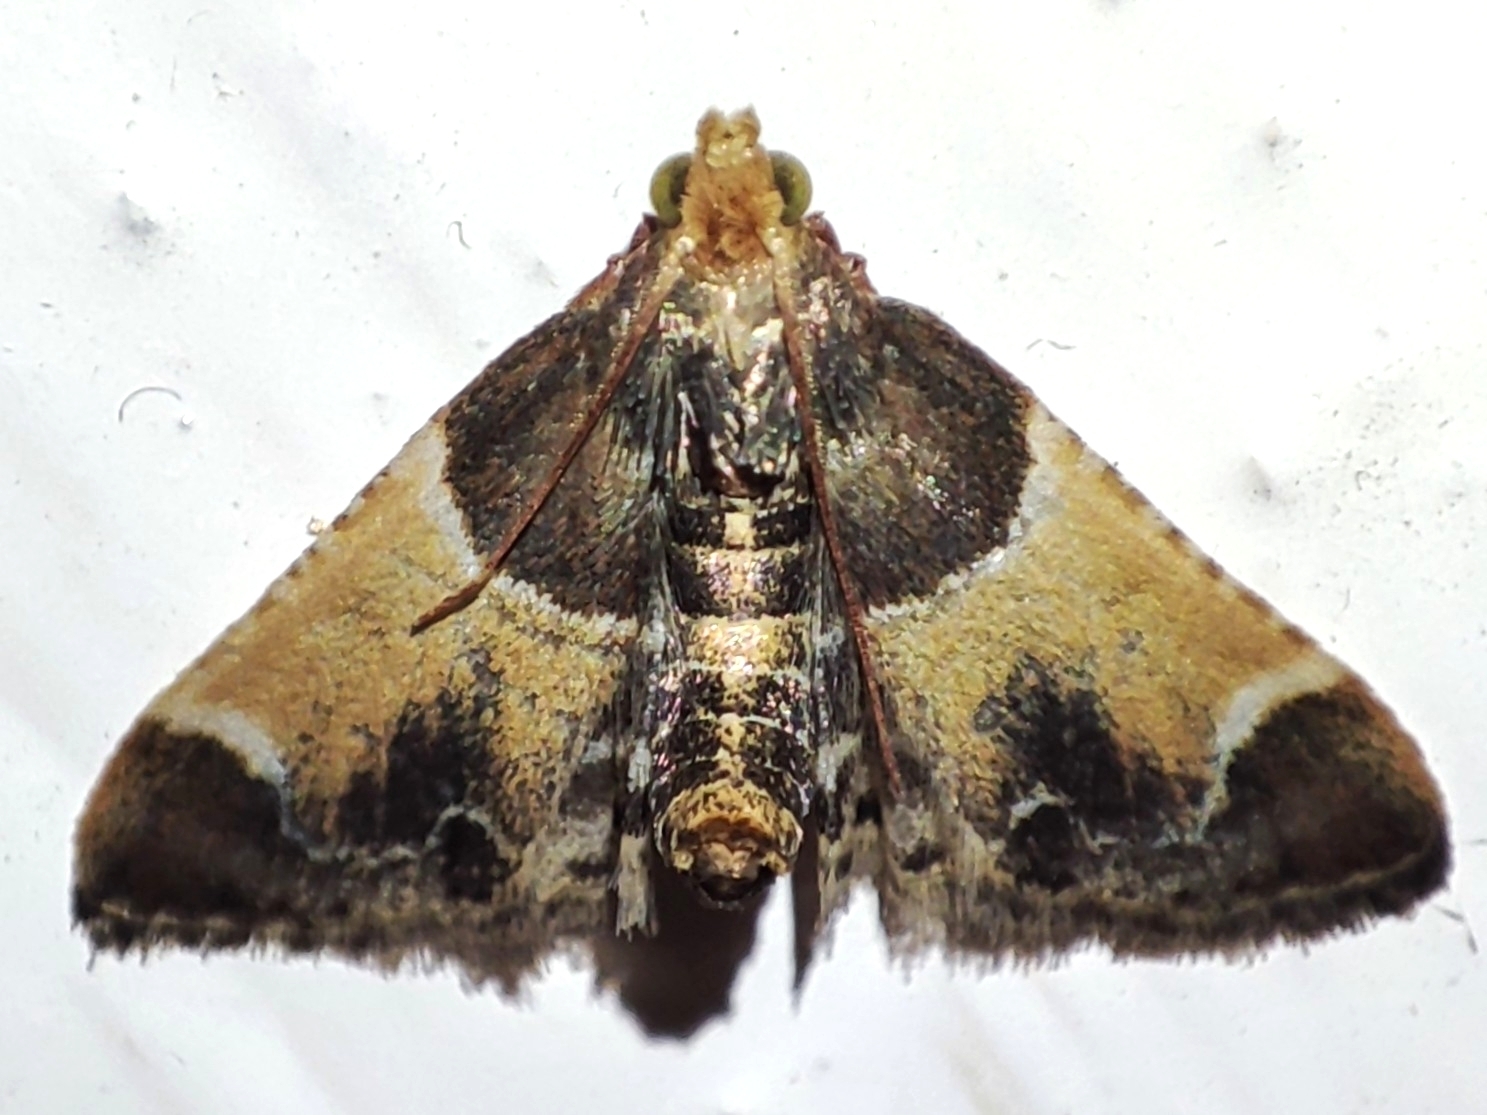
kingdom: Animalia
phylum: Arthropoda
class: Insecta
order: Lepidoptera
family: Pyralidae
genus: Pyralis
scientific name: Pyralis farinalis
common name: Meal moth
